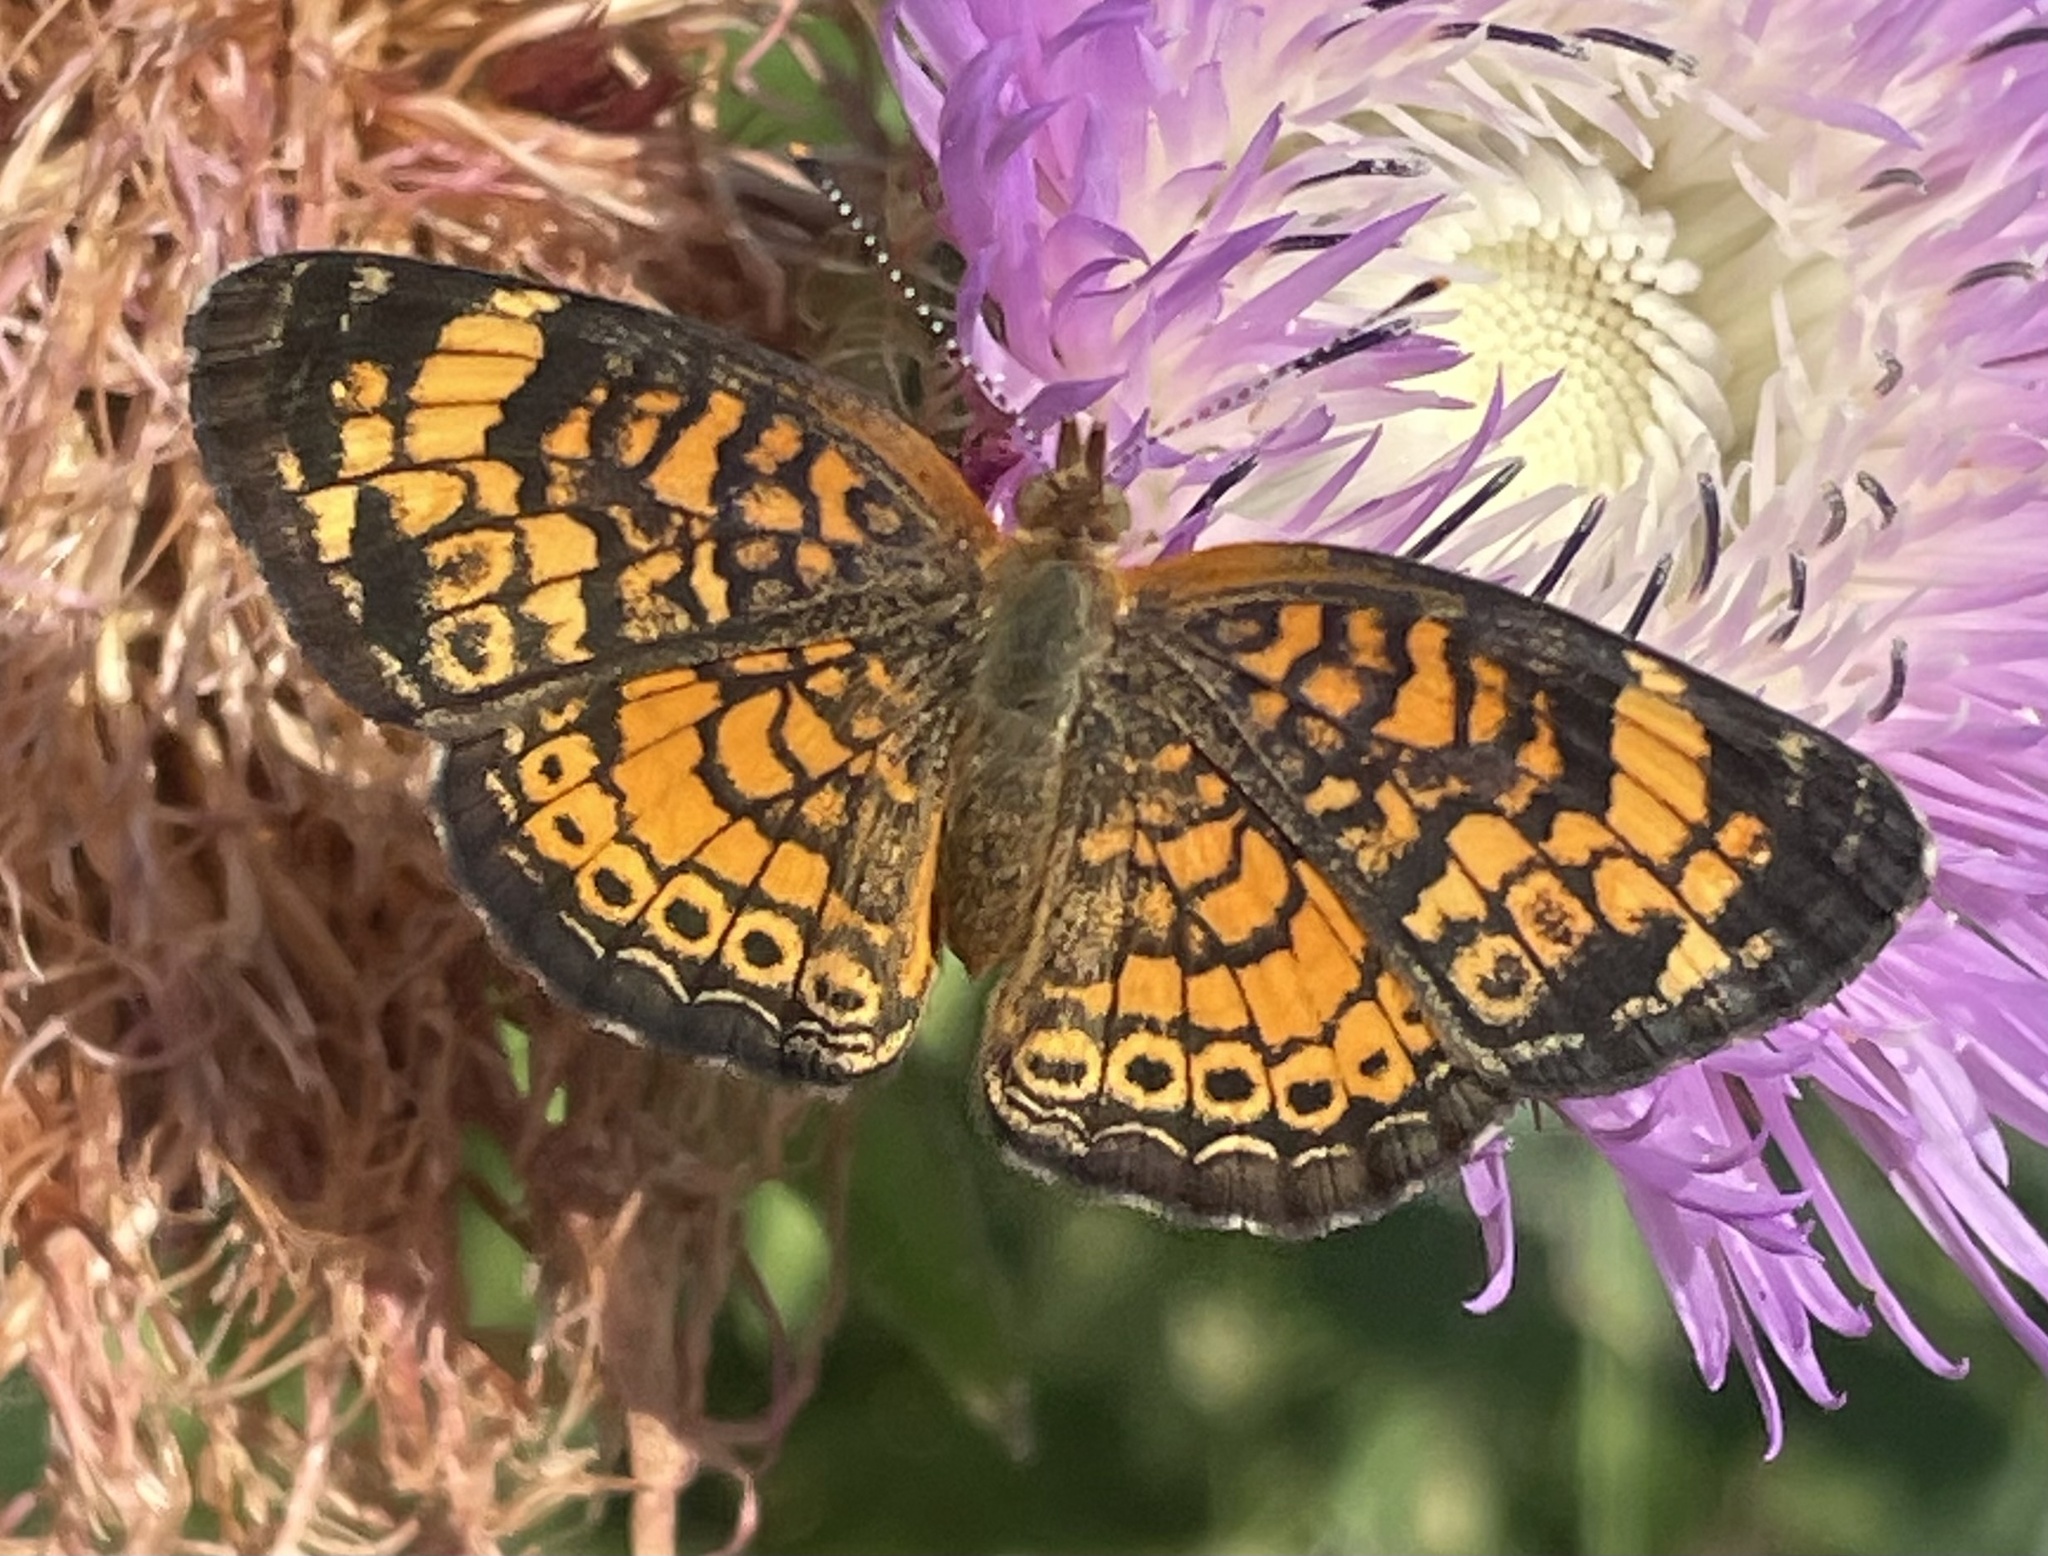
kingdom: Animalia
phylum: Arthropoda
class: Insecta
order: Lepidoptera
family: Nymphalidae
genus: Phyciodes
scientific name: Phyciodes tharos
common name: Pearl crescent
